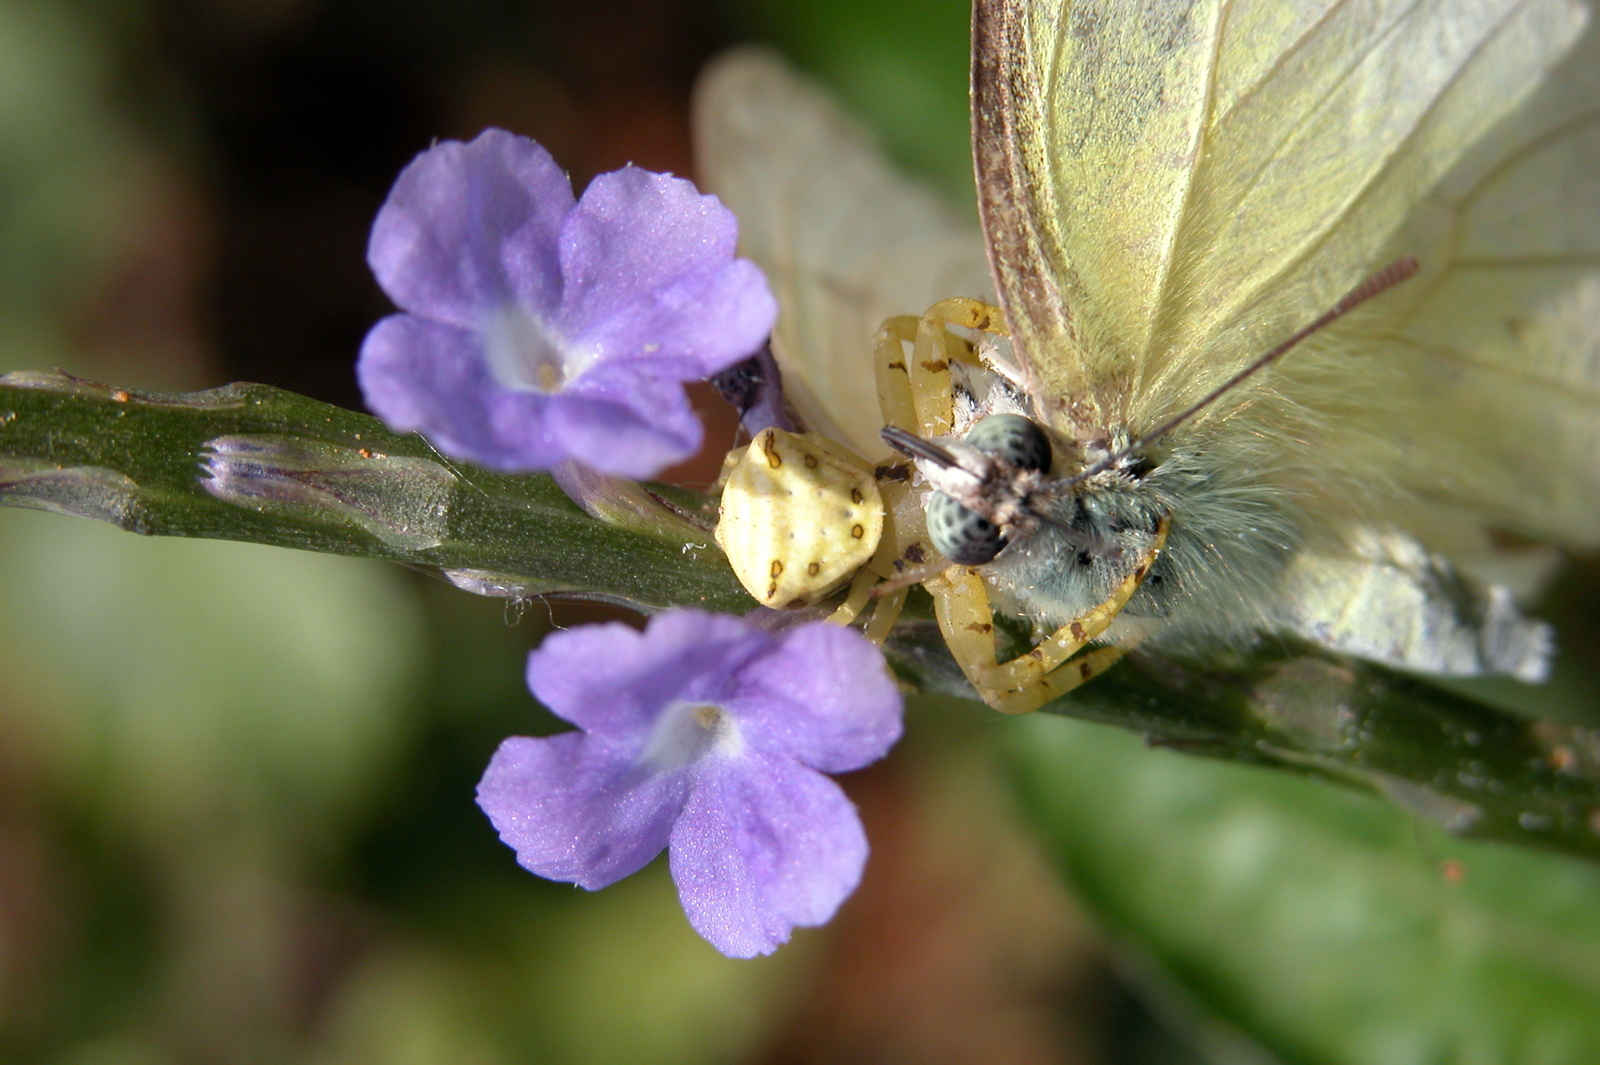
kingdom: Animalia
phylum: Arthropoda
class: Insecta
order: Lepidoptera
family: Pieridae
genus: Catopsilia
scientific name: Catopsilia pomona
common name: Common emigrant
